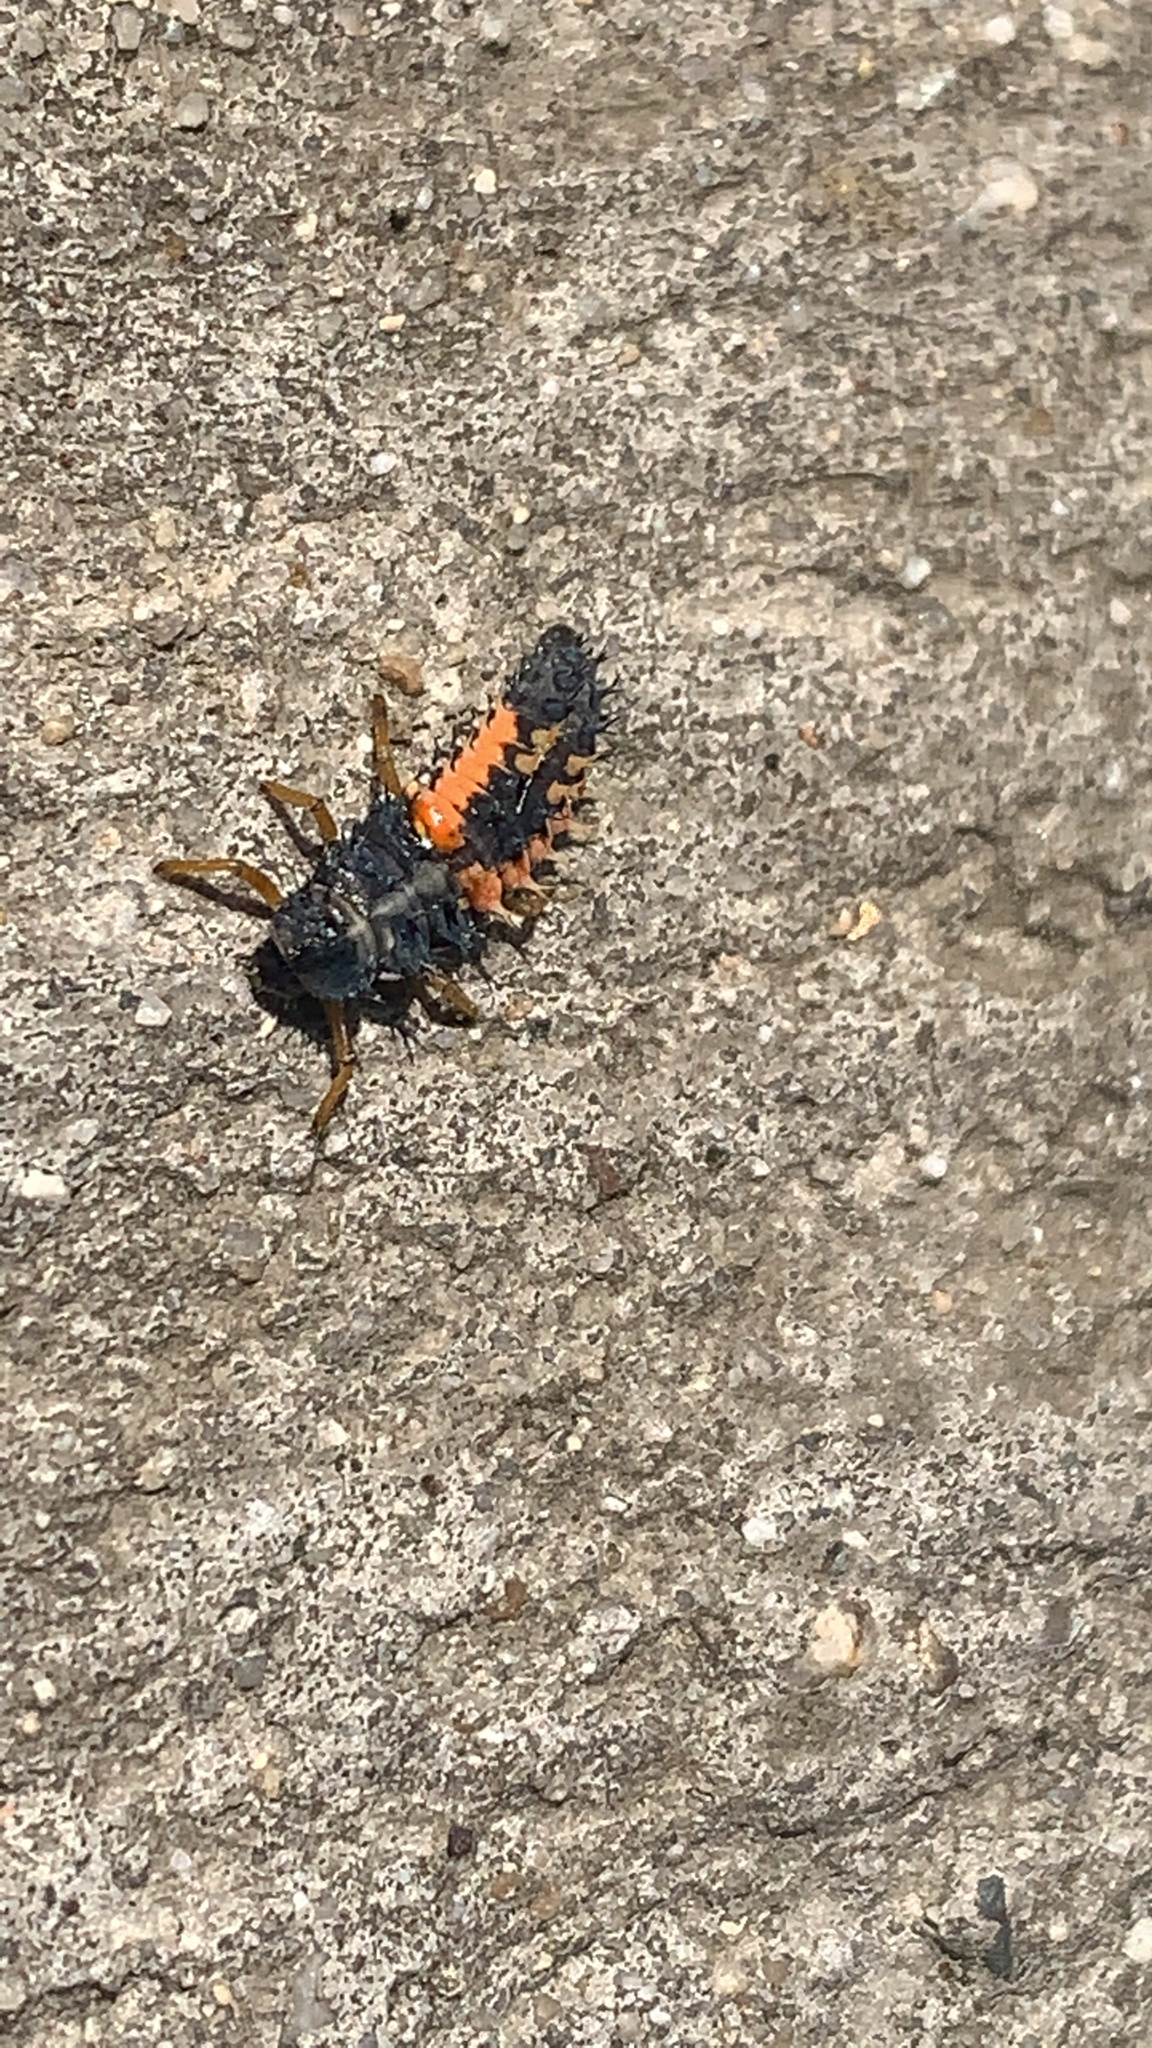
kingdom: Animalia
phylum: Arthropoda
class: Insecta
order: Coleoptera
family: Coccinellidae
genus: Harmonia
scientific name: Harmonia axyridis
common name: Harlequin ladybird
